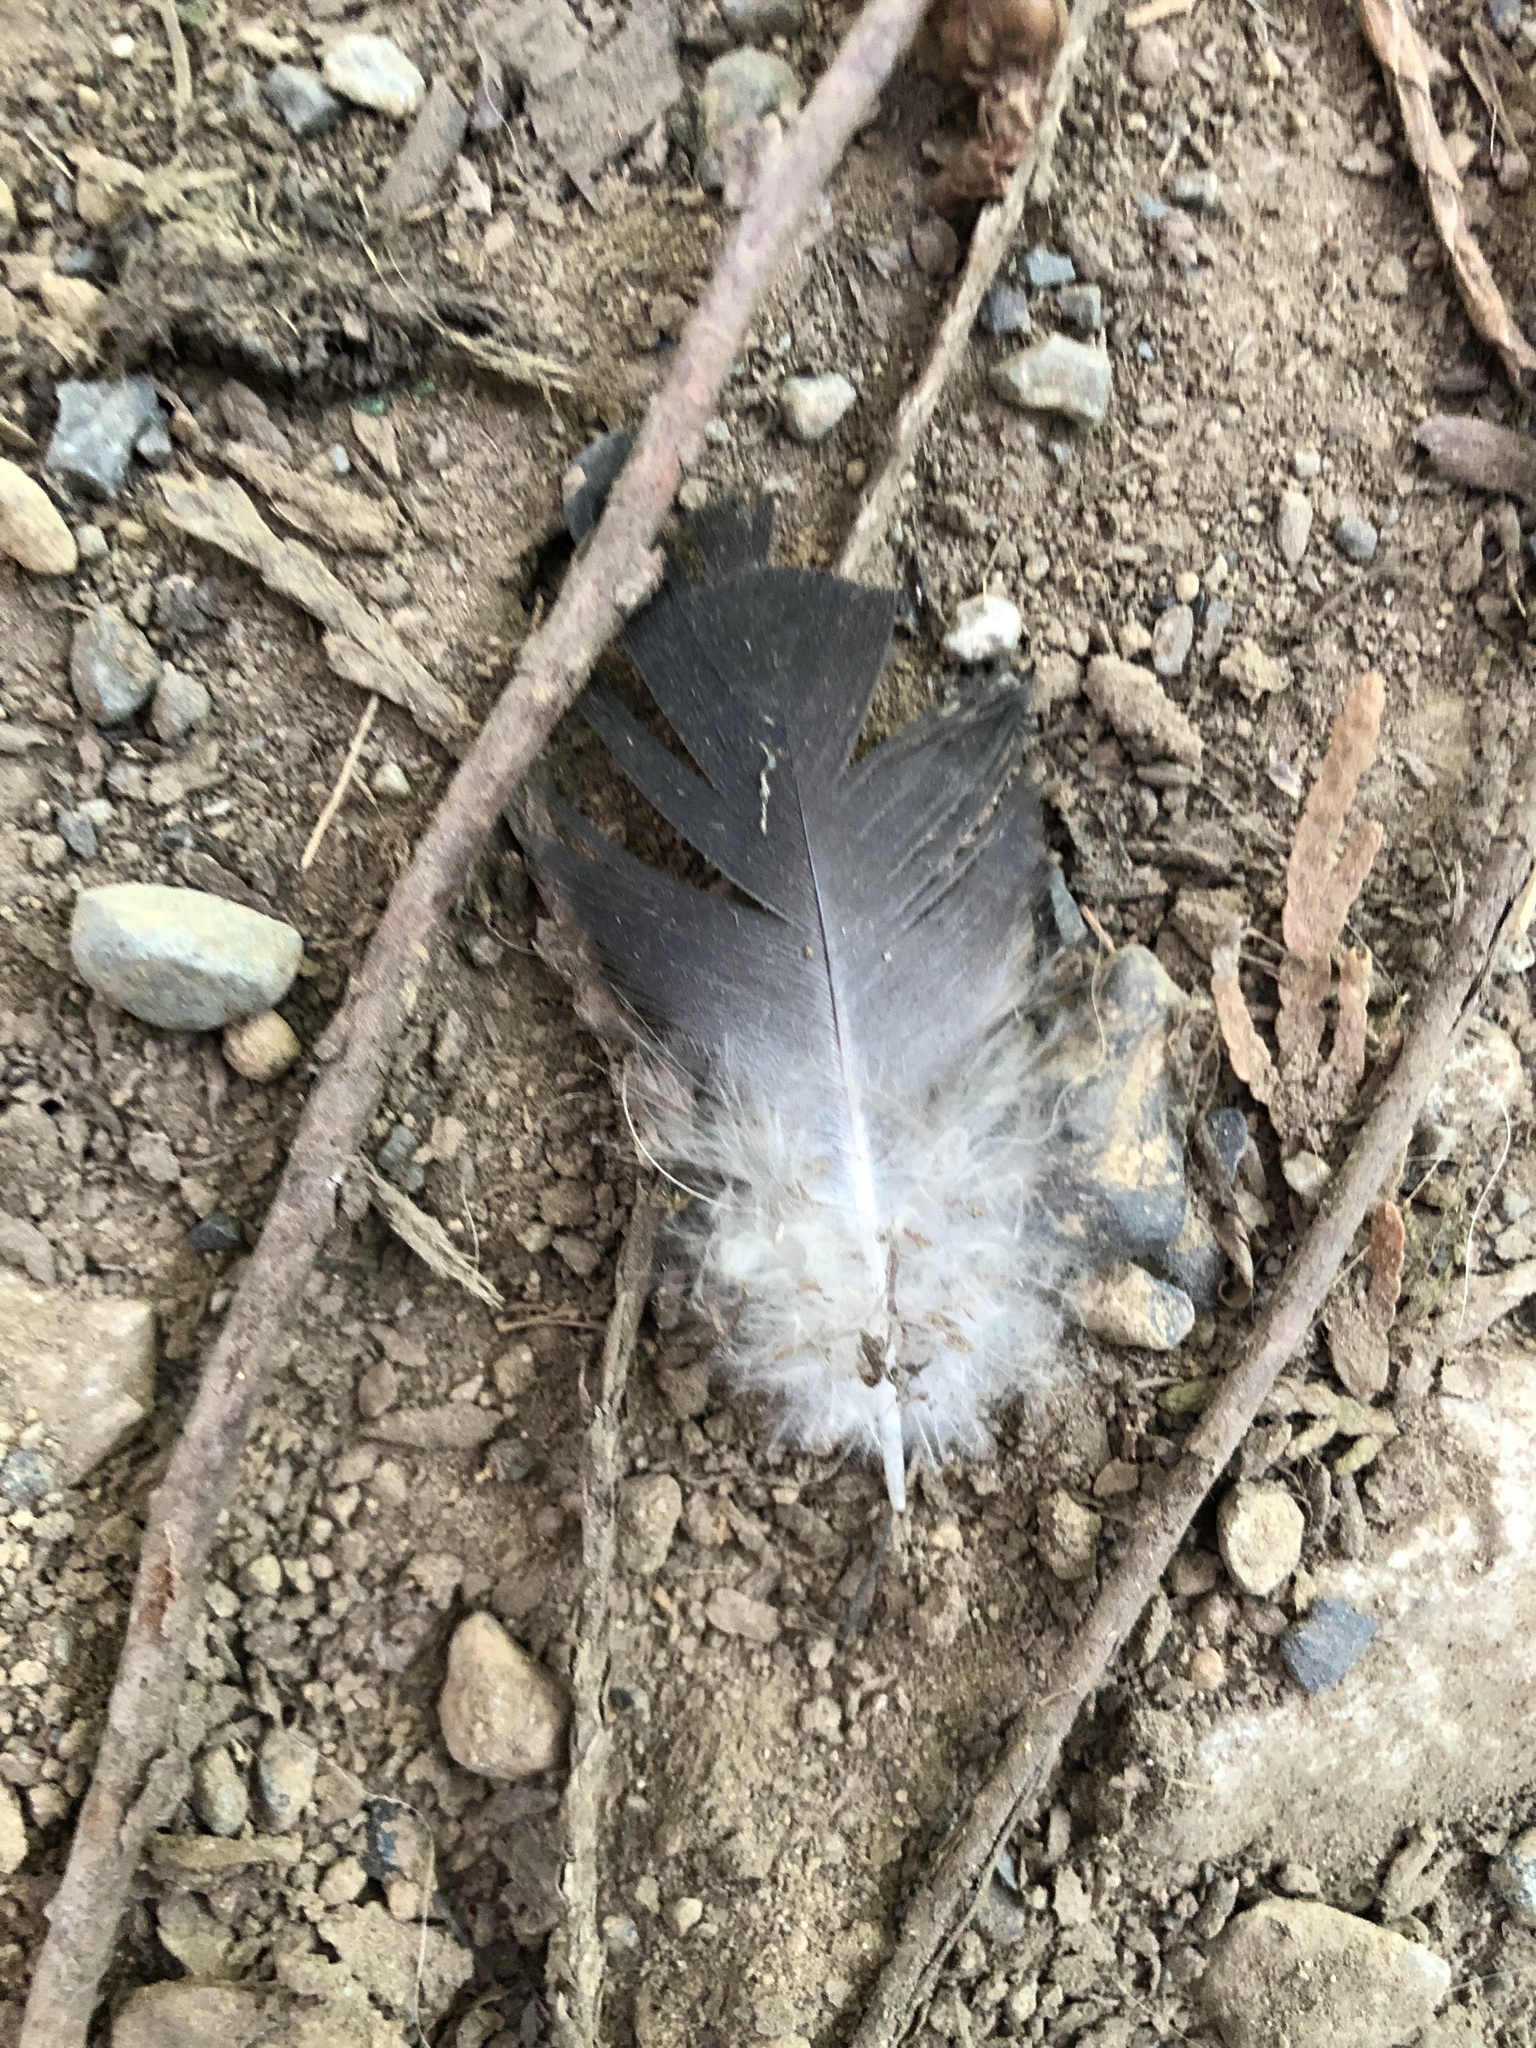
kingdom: Animalia
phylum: Chordata
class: Aves
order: Columbiformes
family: Columbidae
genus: Columba
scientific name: Columba livia
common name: Rock pigeon
